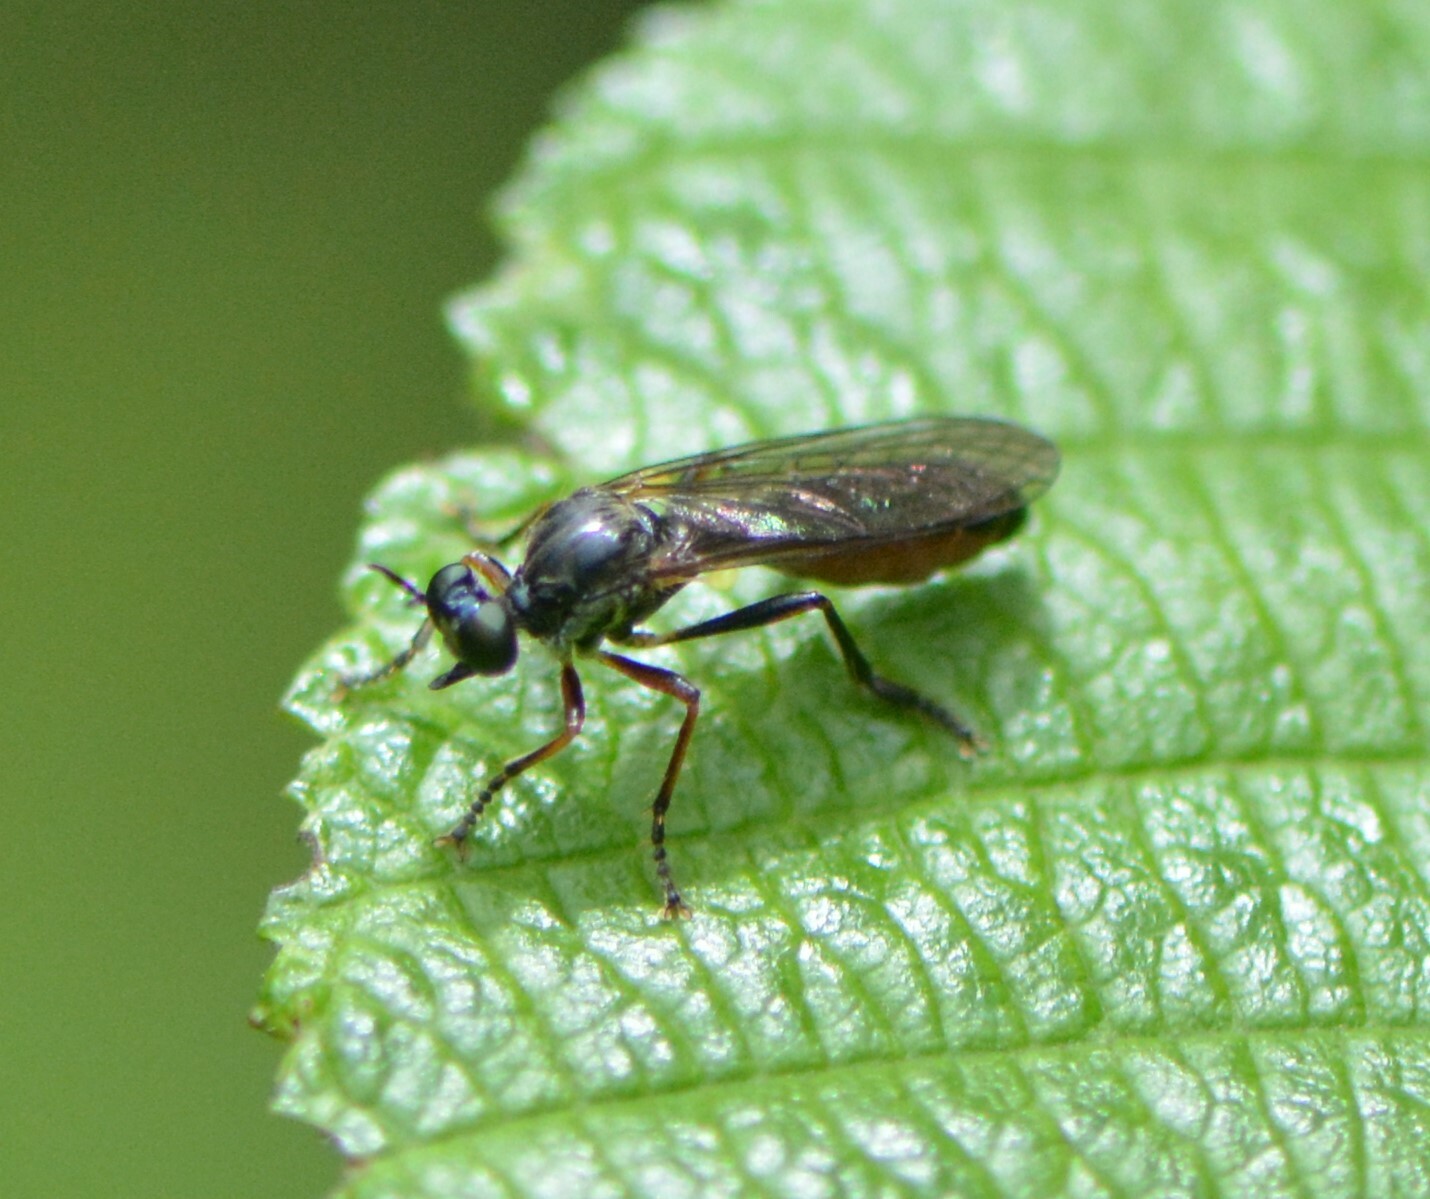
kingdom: Animalia
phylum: Arthropoda
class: Insecta
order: Diptera
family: Asilidae
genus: Dioctria
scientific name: Dioctria hyalipennis
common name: Stripe-legged robberfly
